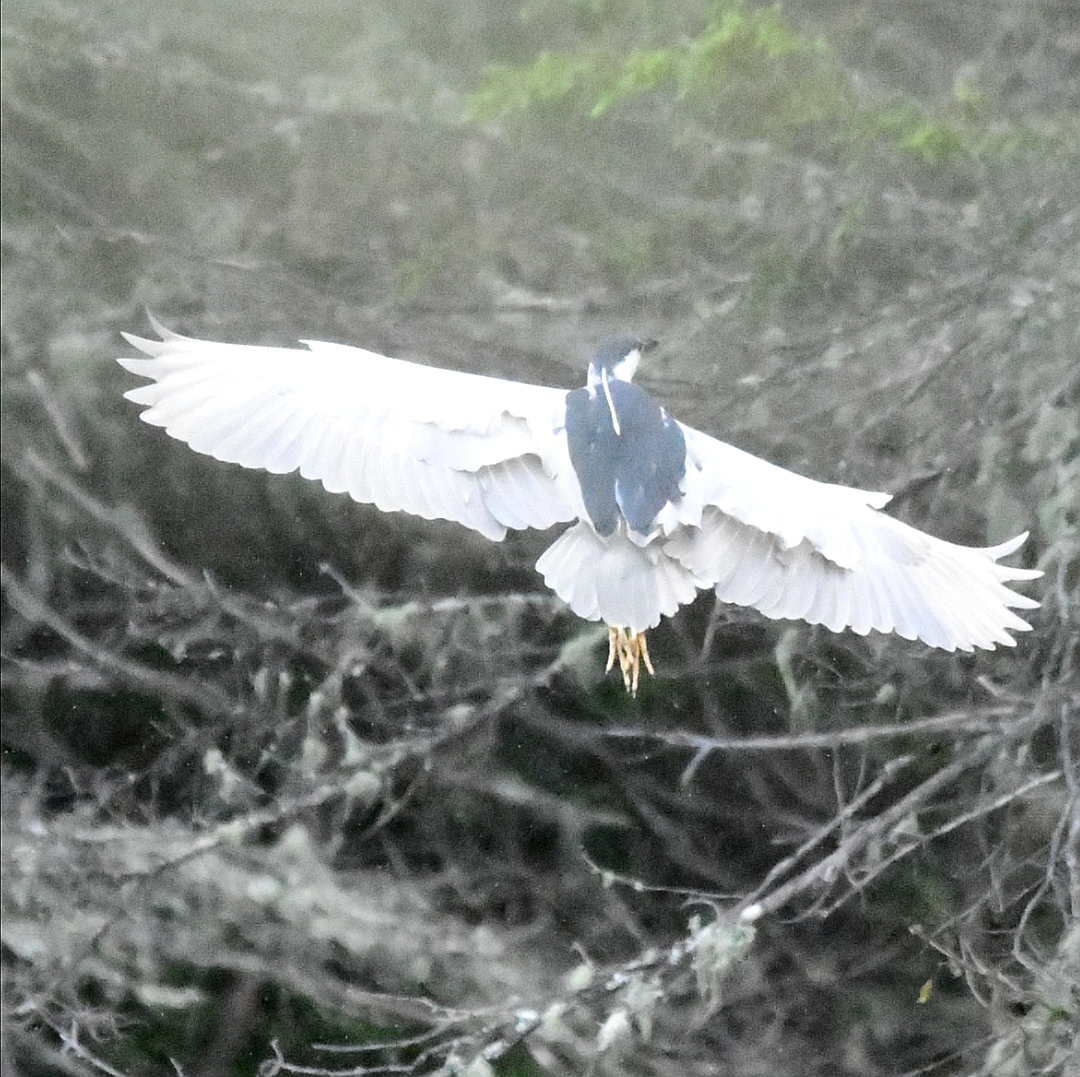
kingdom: Animalia
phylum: Chordata
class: Aves
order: Pelecaniformes
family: Ardeidae
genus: Nycticorax
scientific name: Nycticorax nycticorax
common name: Black-crowned night heron
